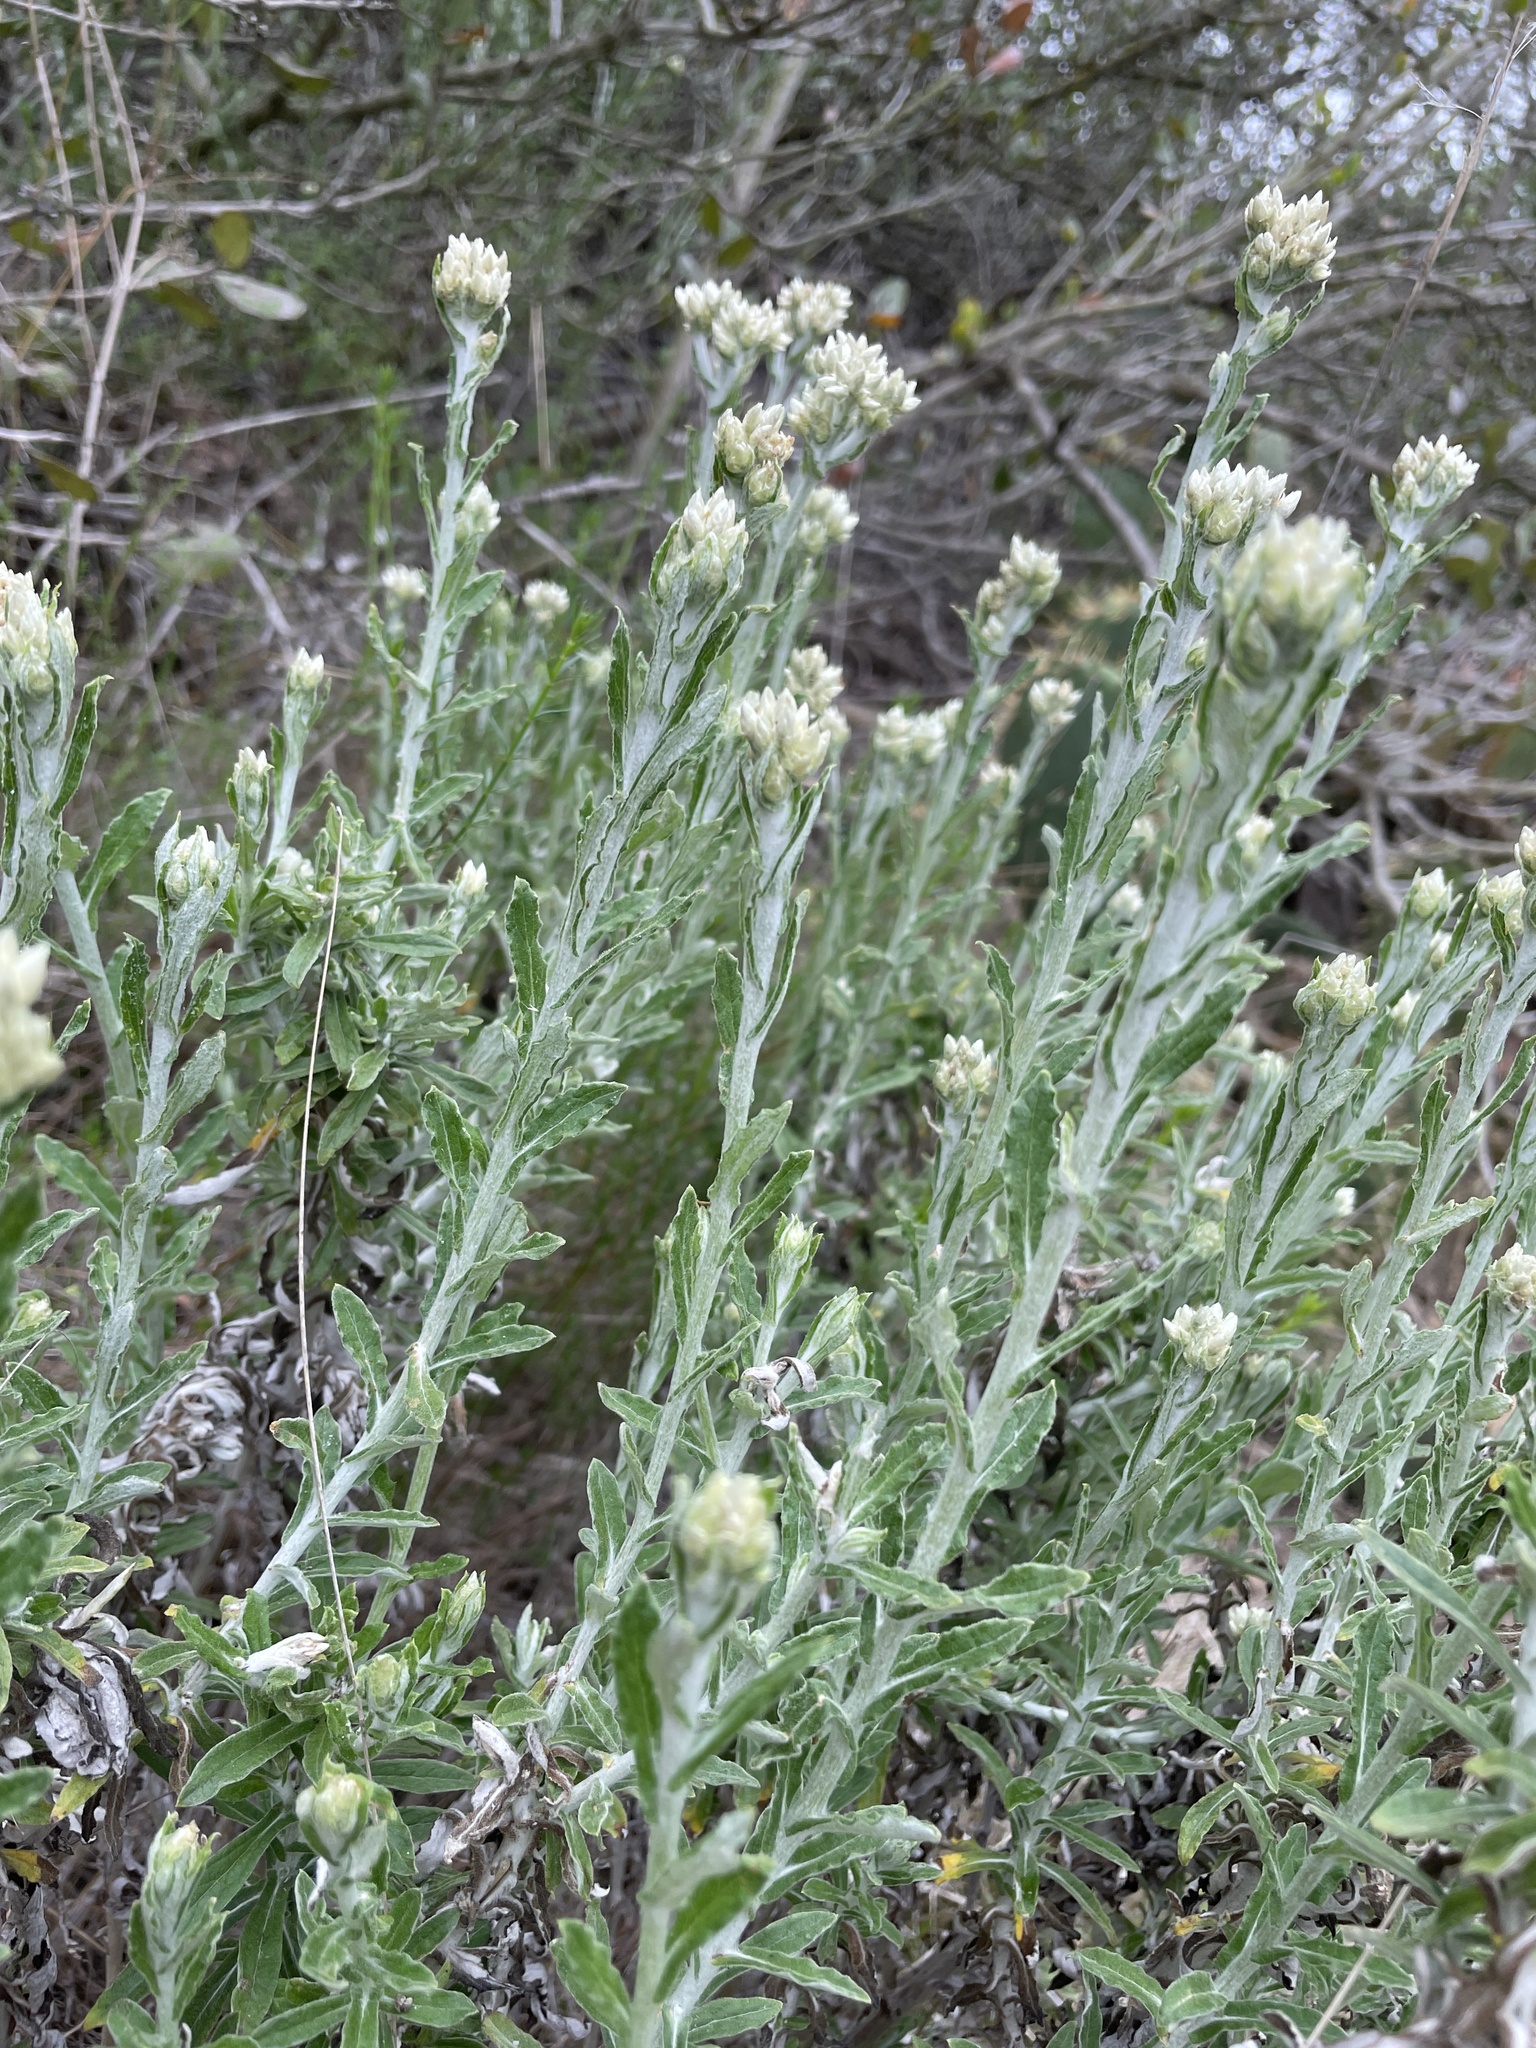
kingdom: Plantae
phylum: Tracheophyta
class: Magnoliopsida
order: Asterales
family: Asteraceae
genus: Pseudognaphalium
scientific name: Pseudognaphalium biolettii
